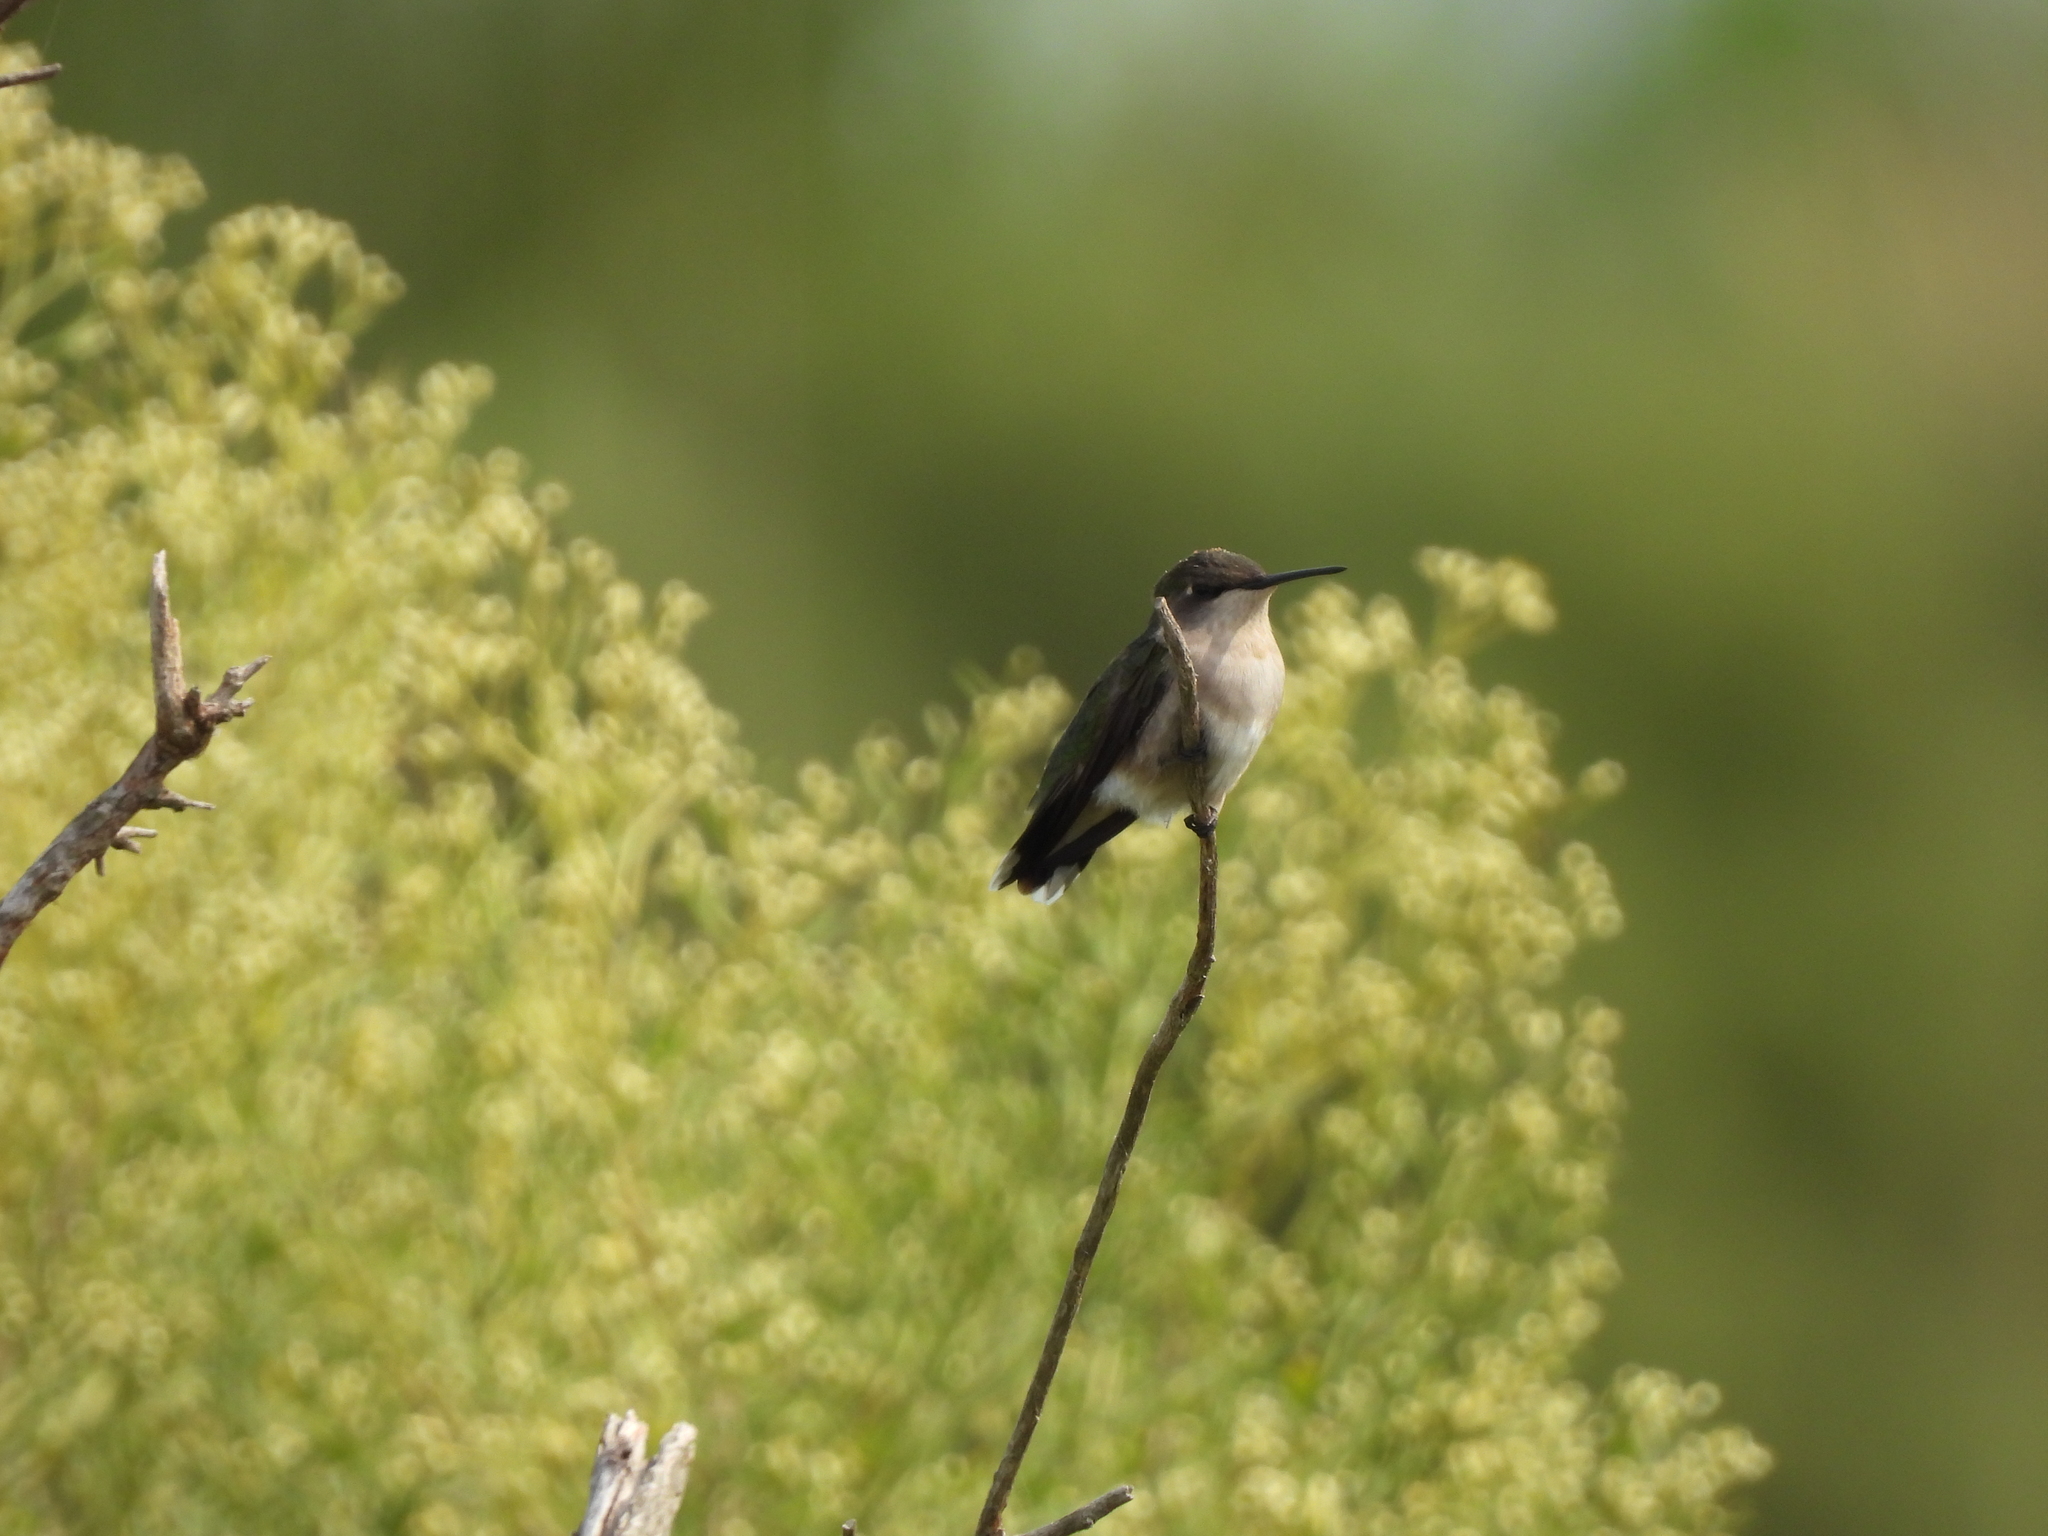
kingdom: Animalia
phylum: Chordata
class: Aves
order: Apodiformes
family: Trochilidae
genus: Archilochus
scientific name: Archilochus colubris
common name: Ruby-throated hummingbird
